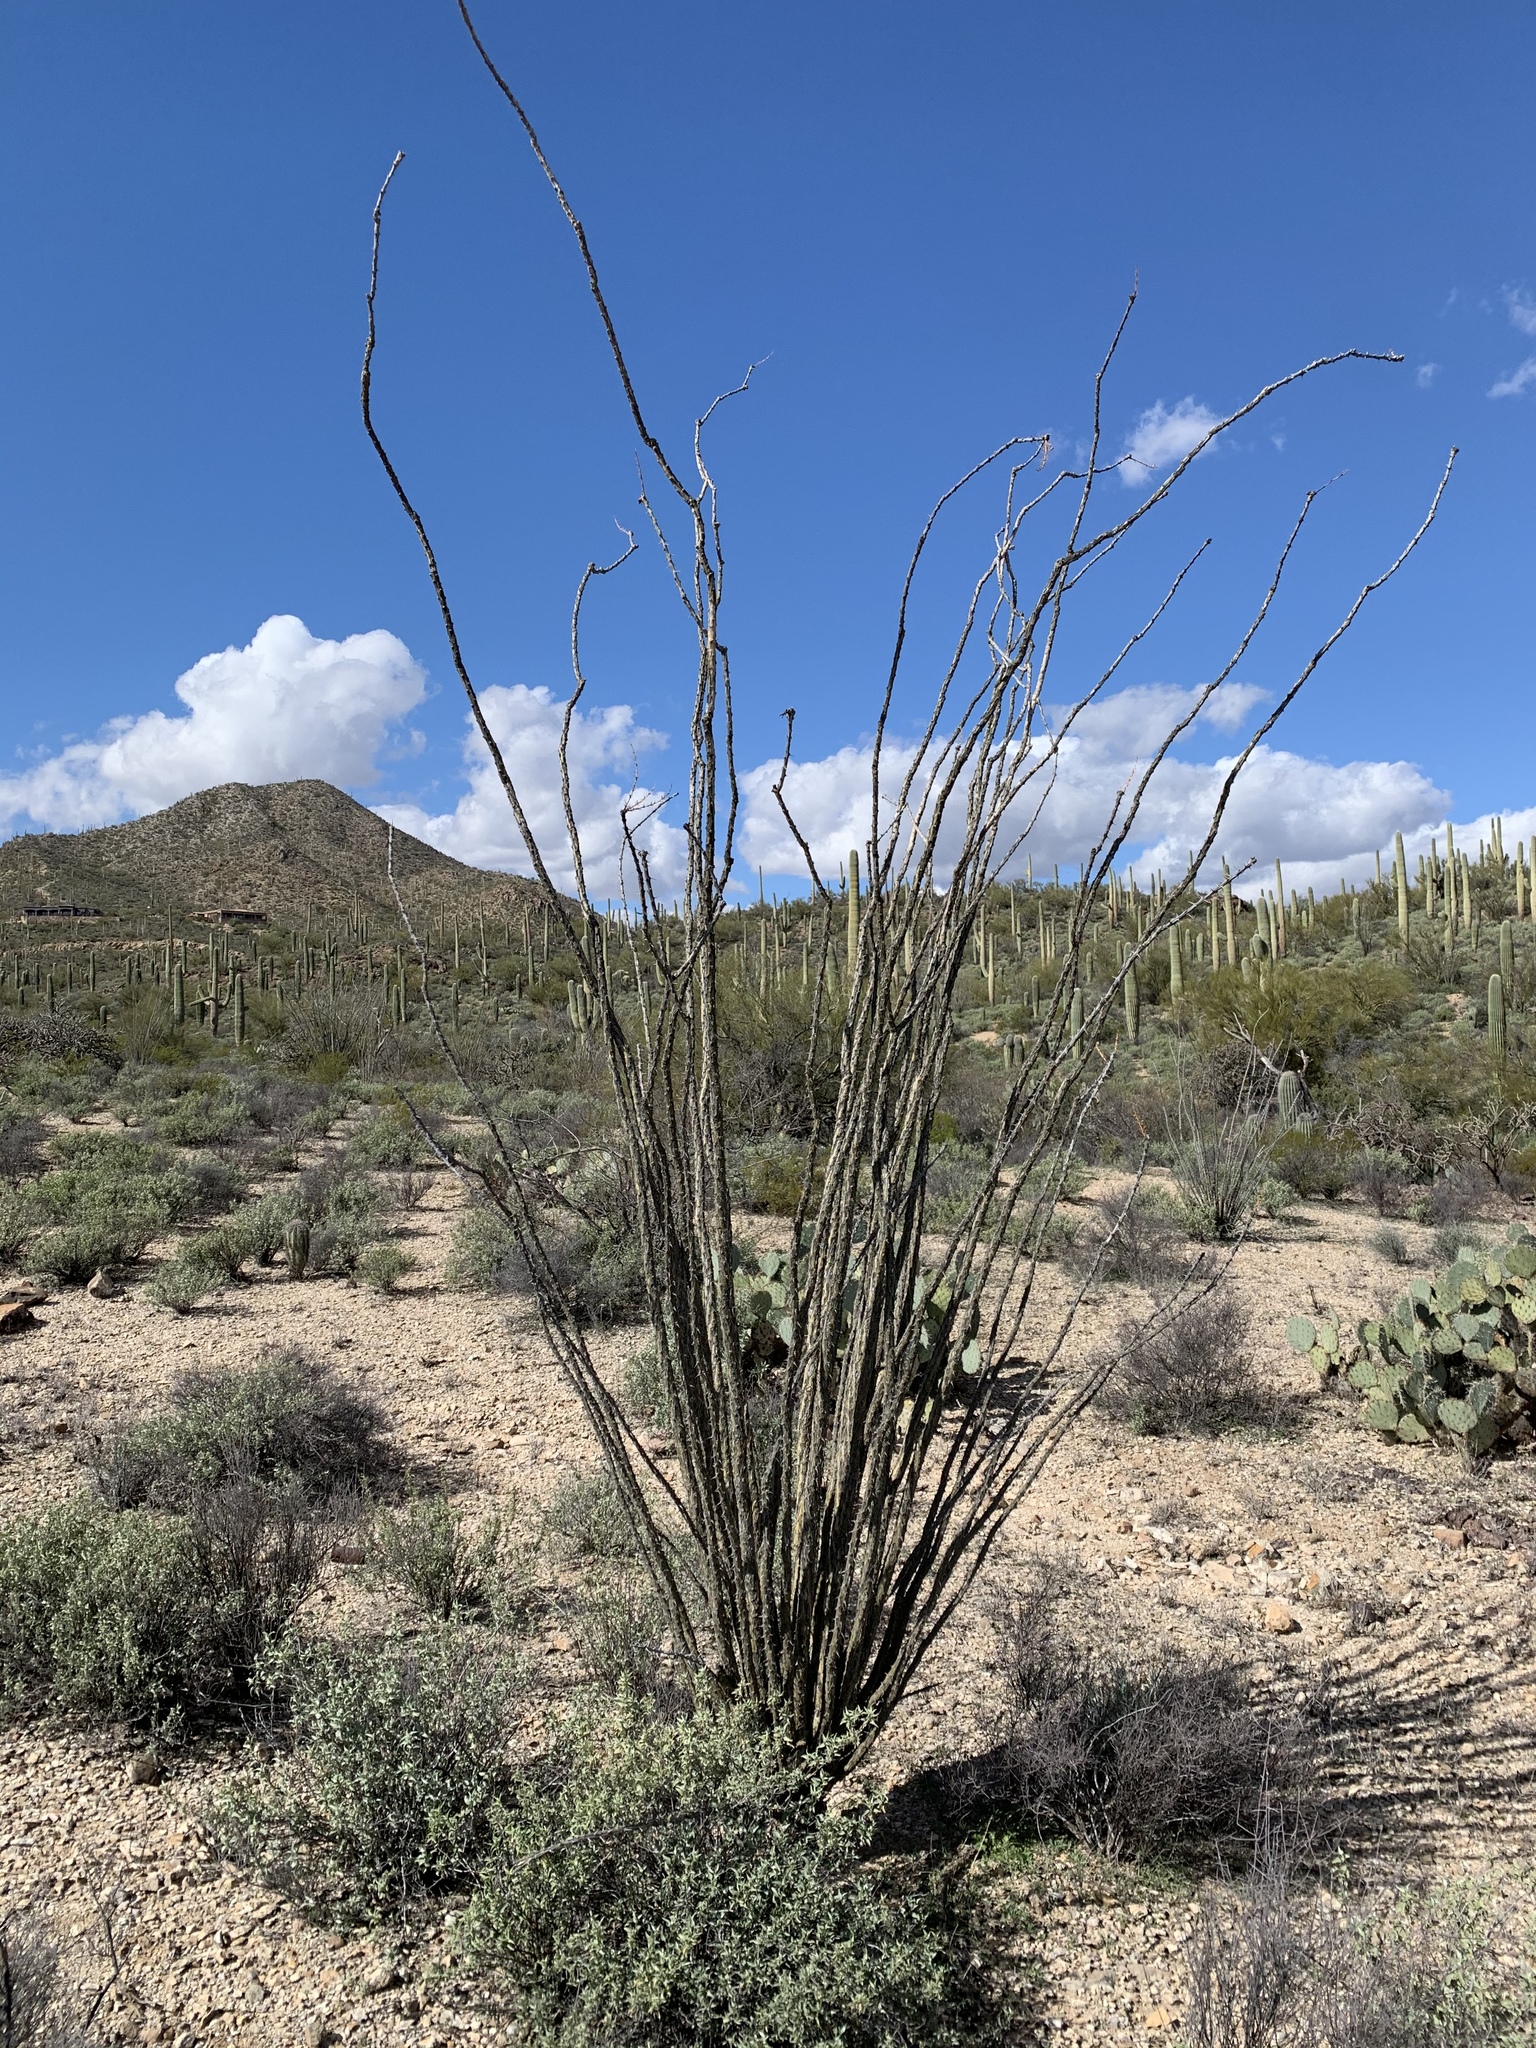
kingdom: Plantae
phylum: Tracheophyta
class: Magnoliopsida
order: Ericales
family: Fouquieriaceae
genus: Fouquieria
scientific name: Fouquieria splendens
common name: Vine-cactus
